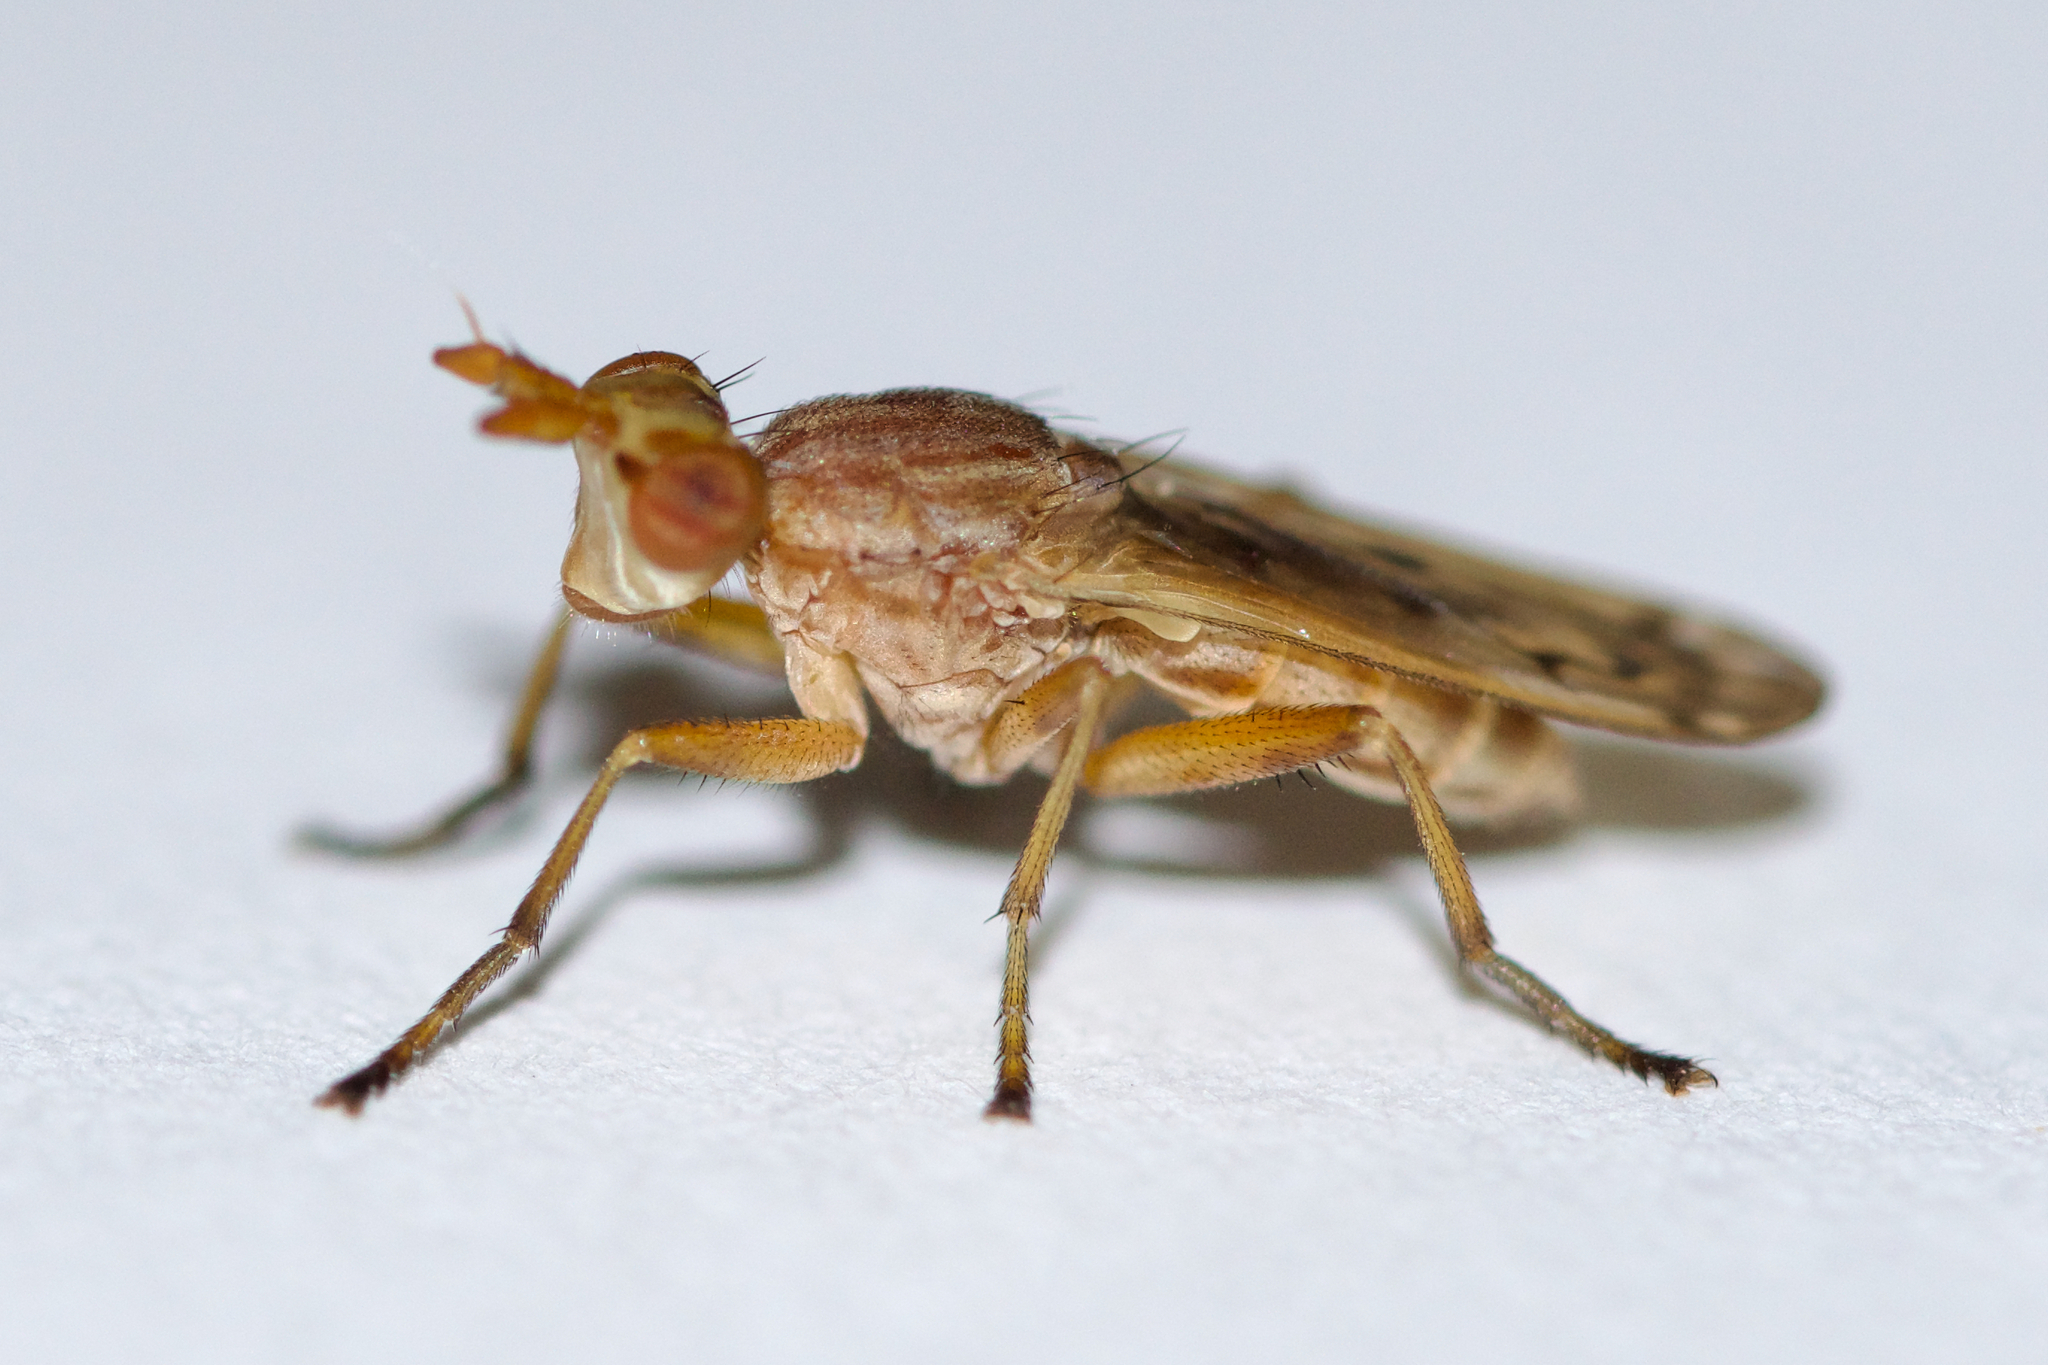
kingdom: Animalia
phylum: Arthropoda
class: Insecta
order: Diptera
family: Sciomyzidae
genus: Elgiva
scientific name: Elgiva solicita
